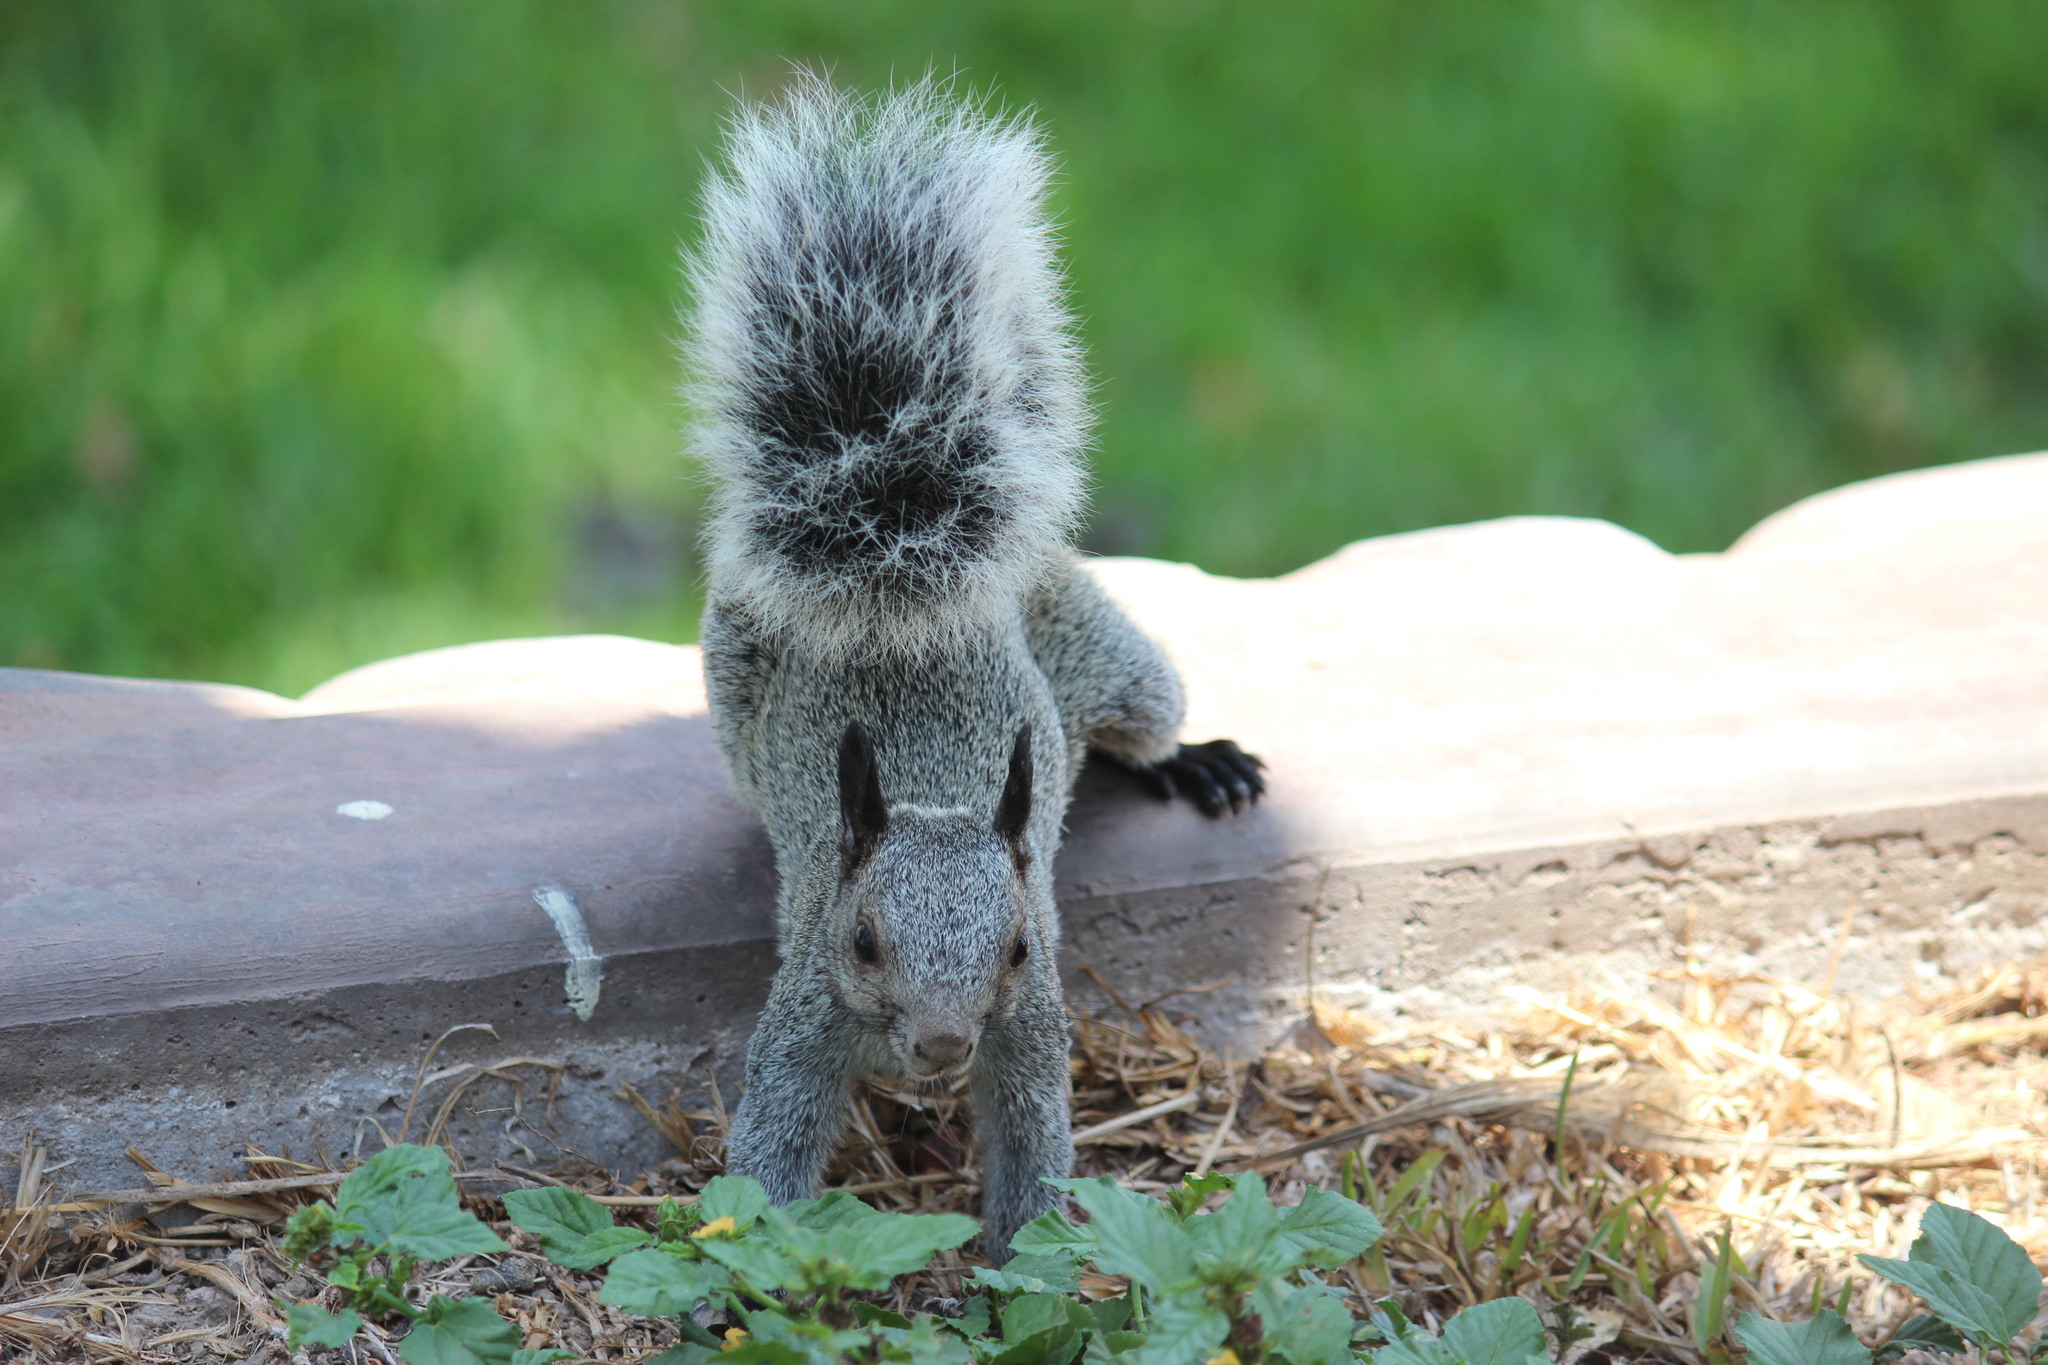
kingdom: Animalia
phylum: Chordata
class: Mammalia
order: Rodentia
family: Sciuridae
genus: Sciurus
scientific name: Sciurus stramineus
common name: Guayaquil squirrel
